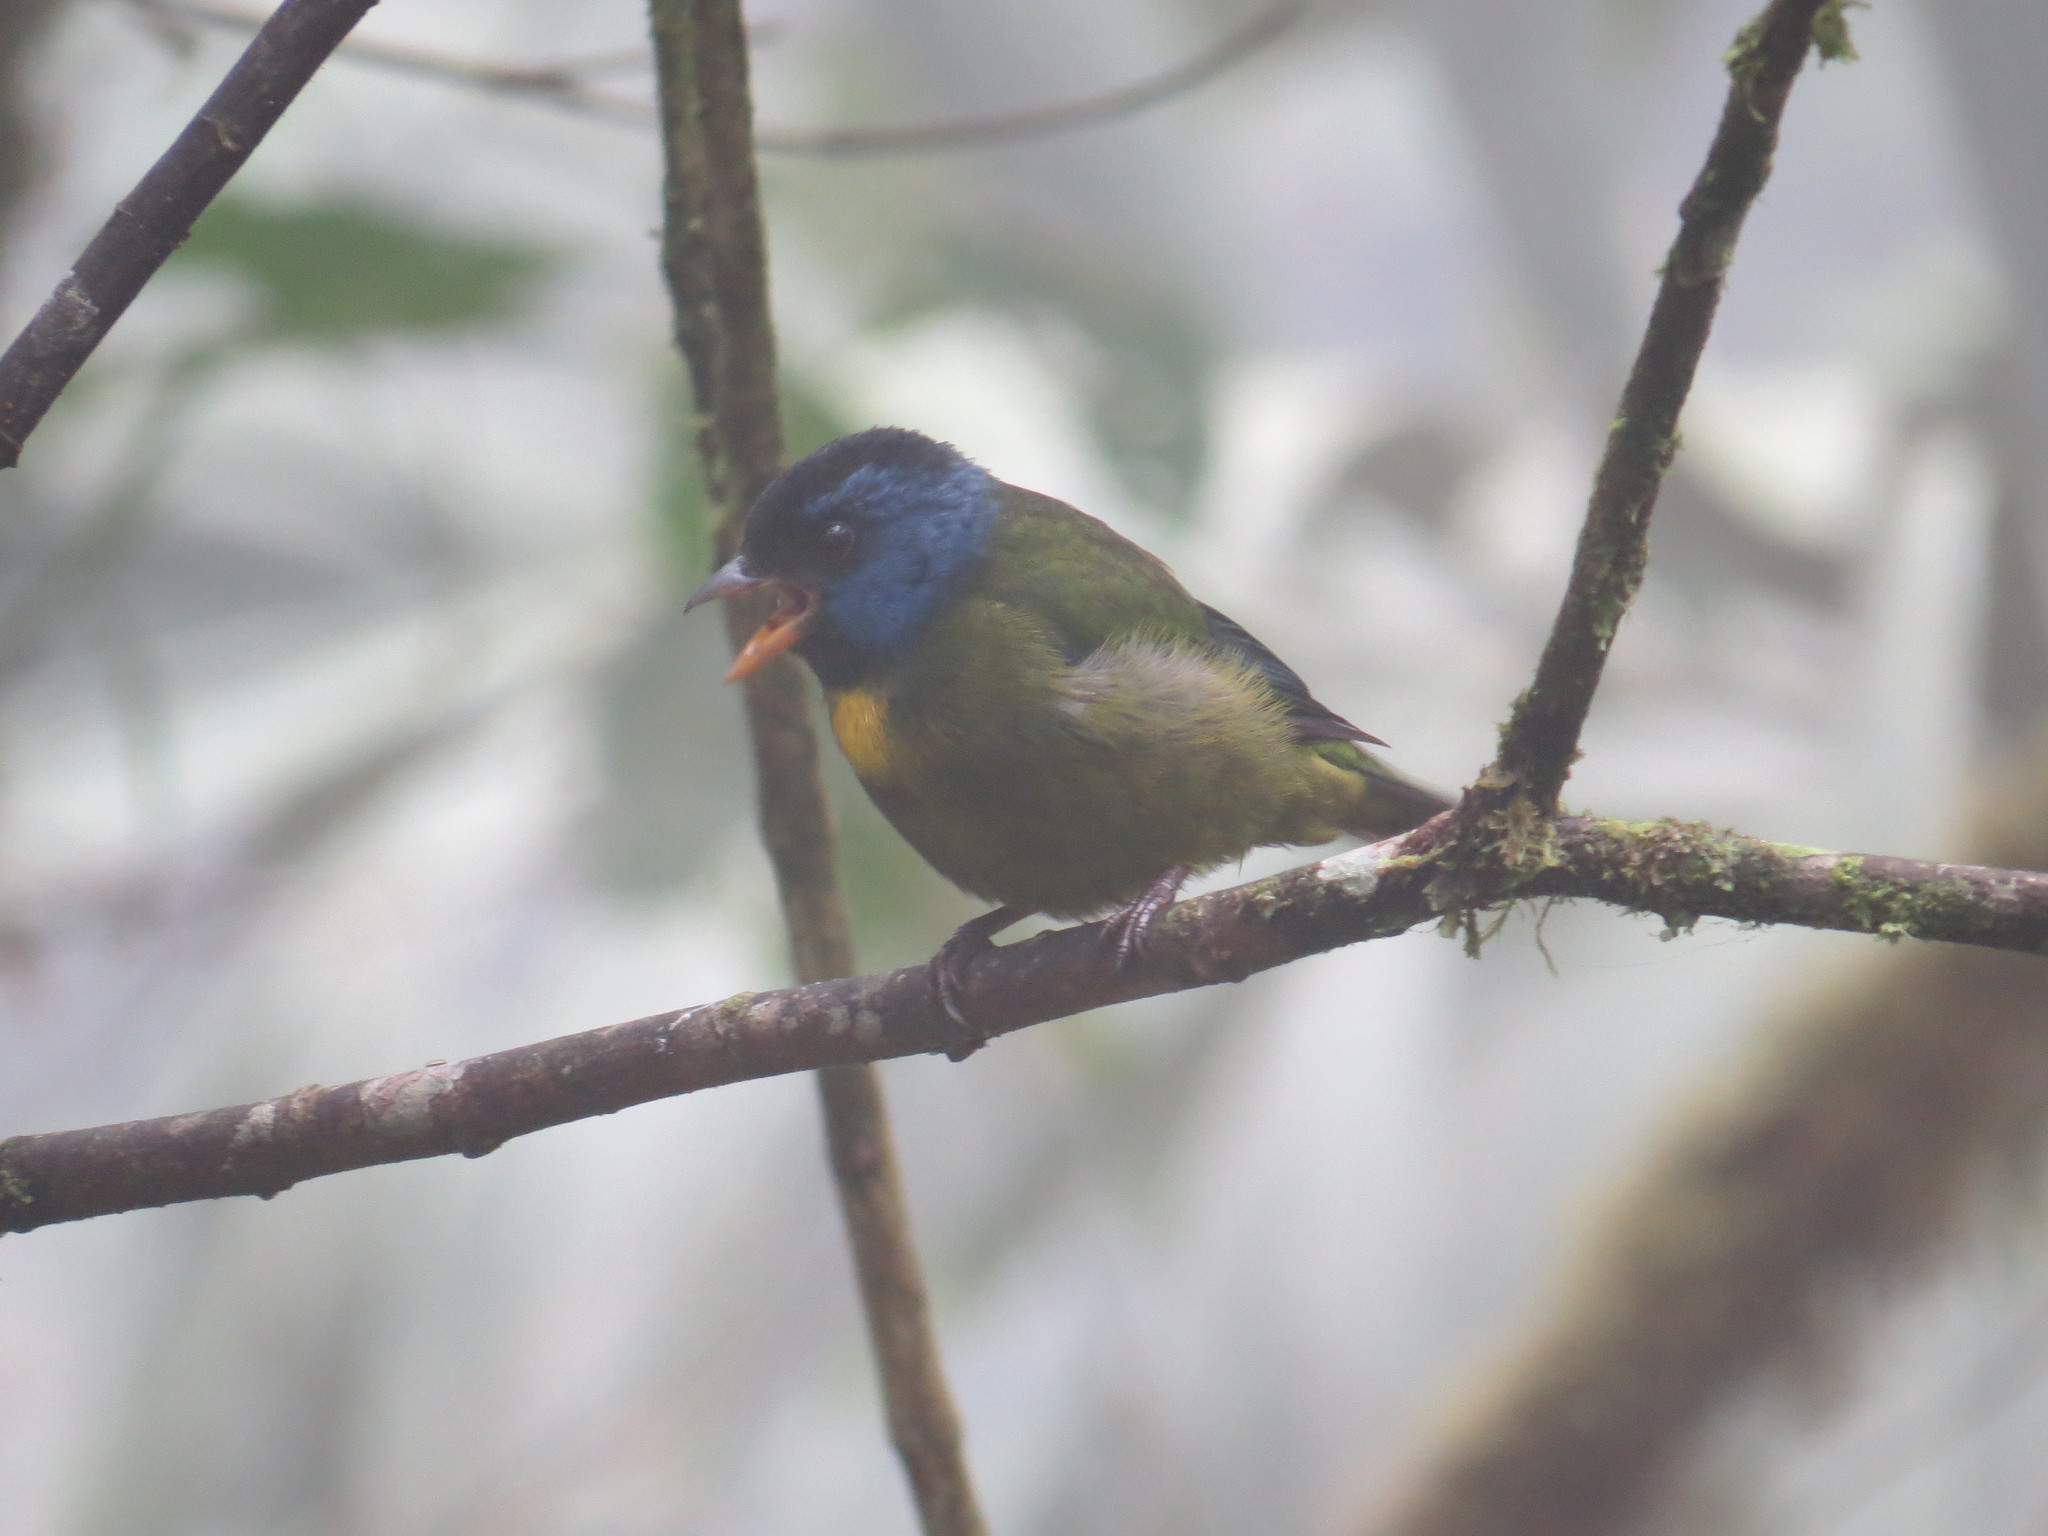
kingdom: Animalia
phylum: Chordata
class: Aves
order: Passeriformes
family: Thraupidae
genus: Bangsia
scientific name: Bangsia edwardsi
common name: Moss-backed tanager
